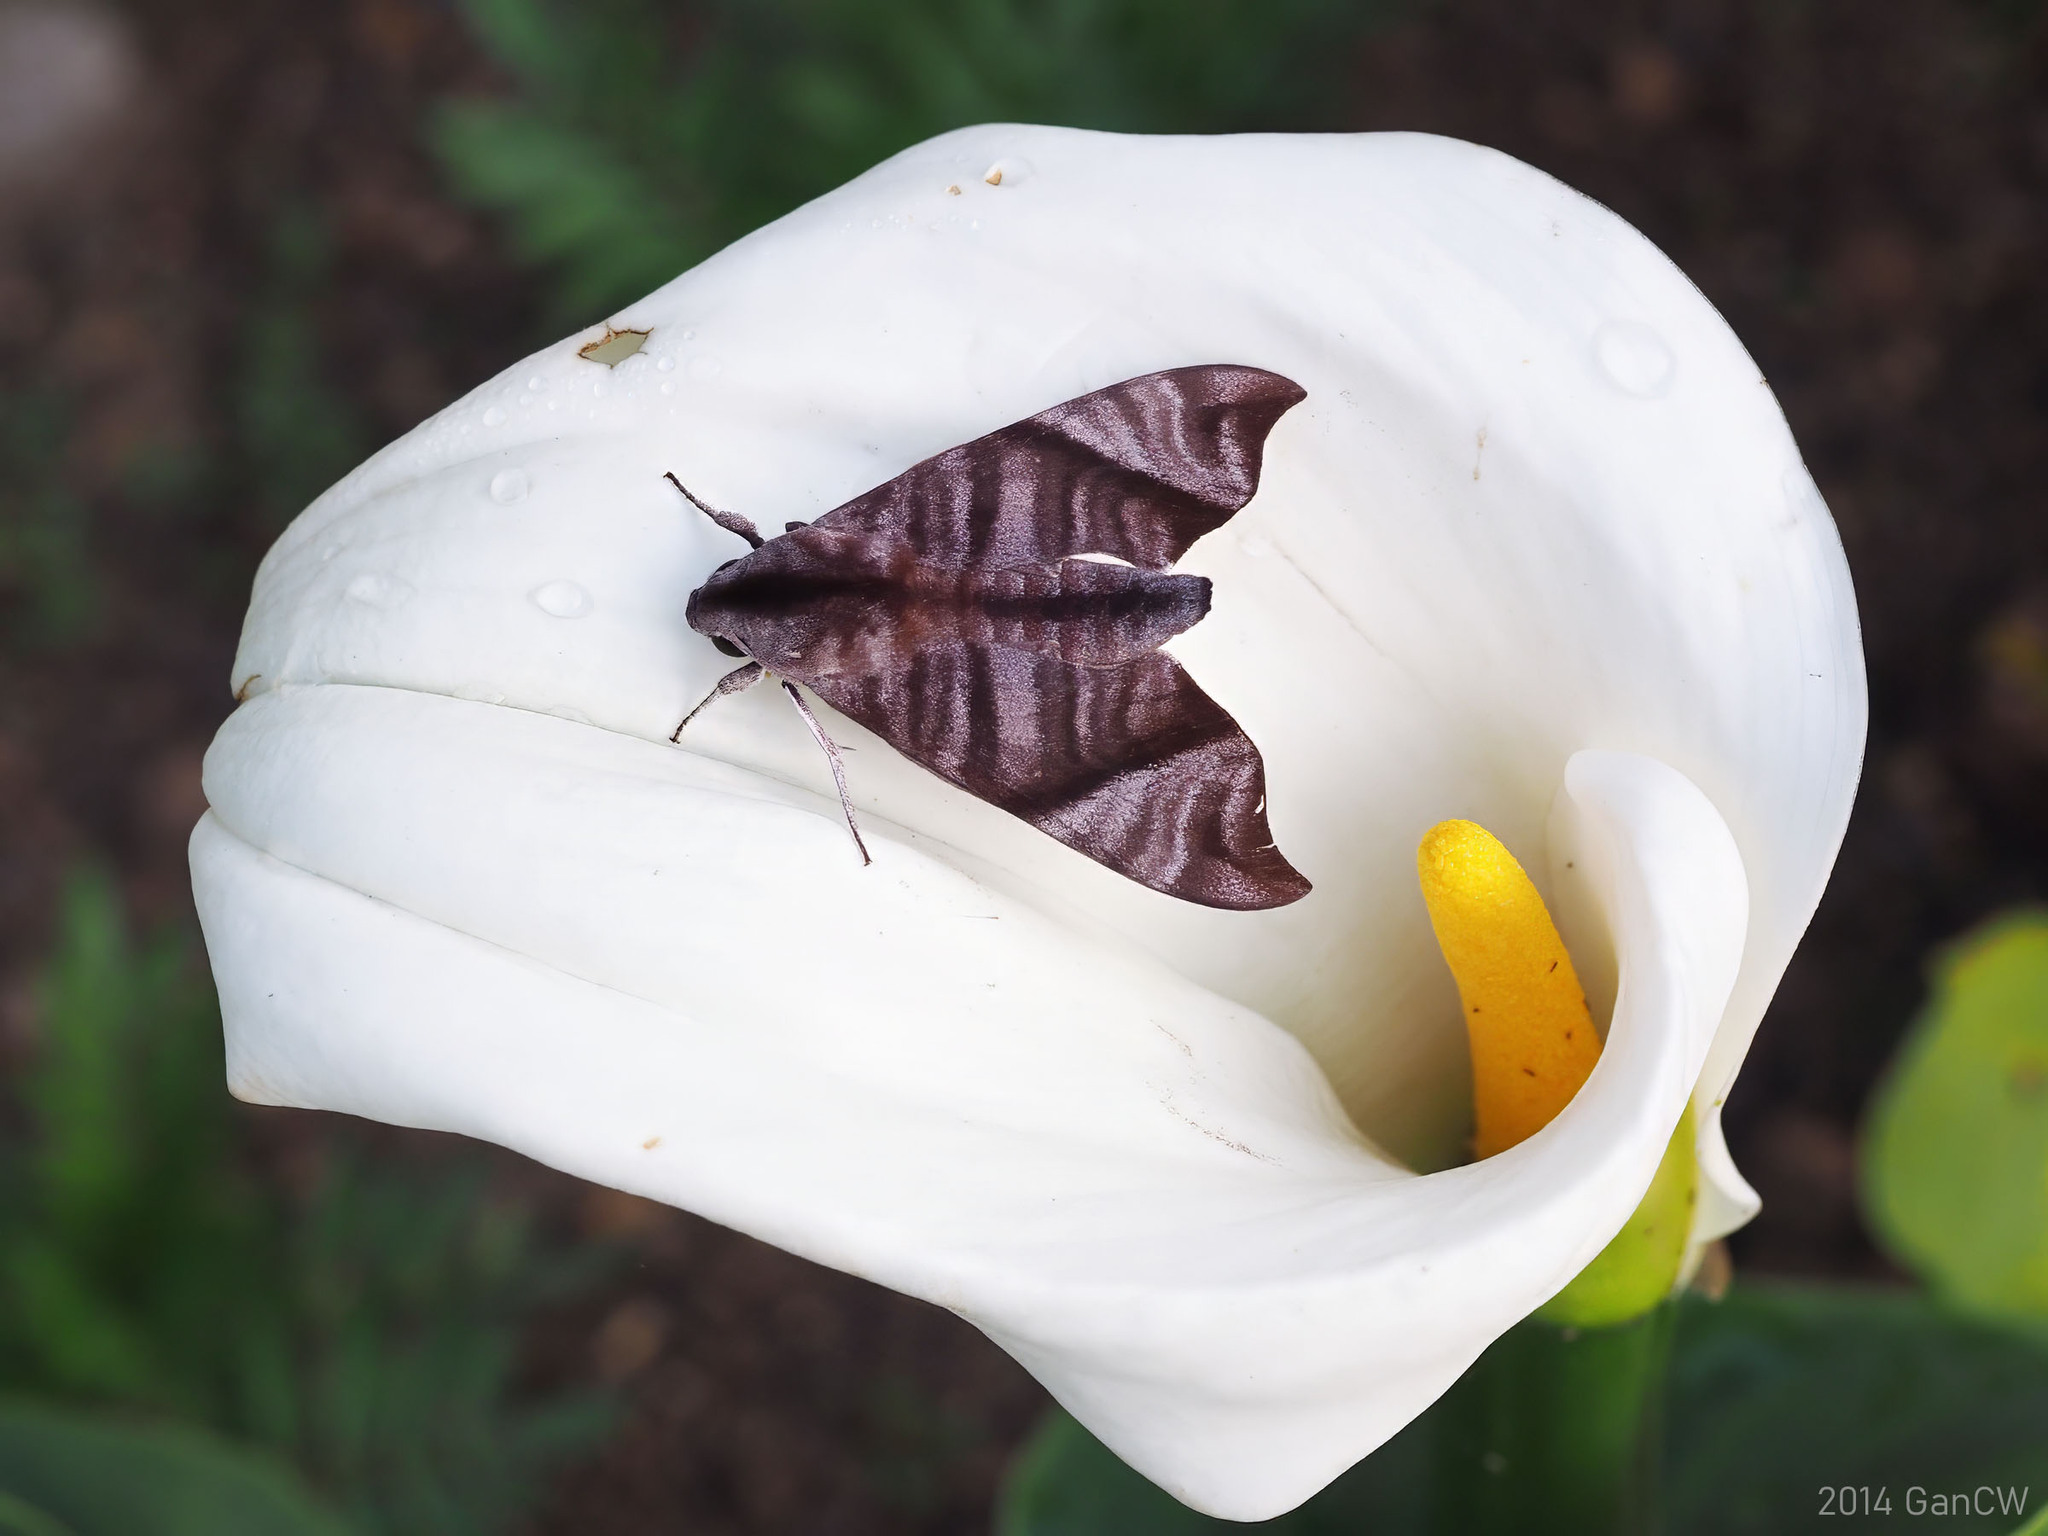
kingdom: Animalia
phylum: Arthropoda
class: Insecta
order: Lepidoptera
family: Sphingidae
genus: Dahira
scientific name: Dahira falcata
